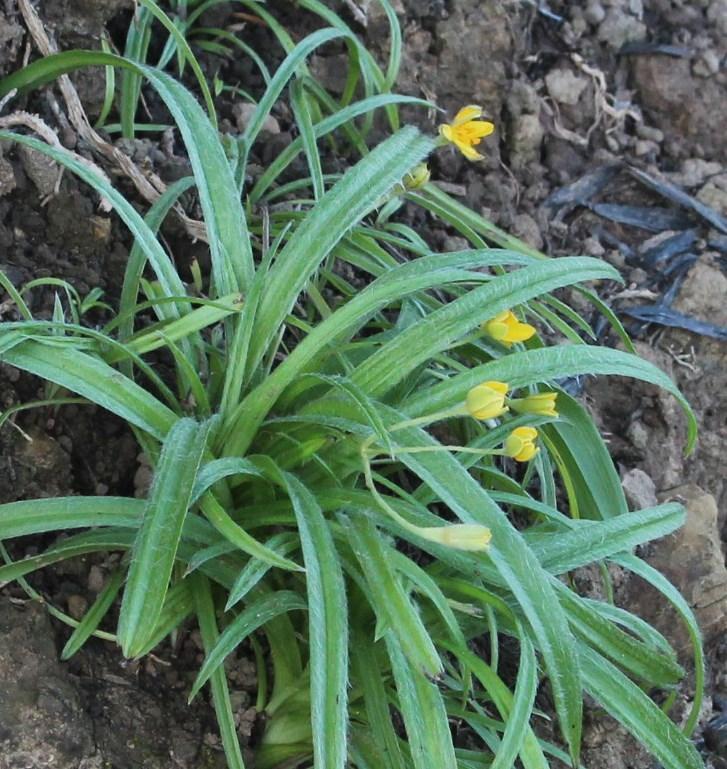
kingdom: Plantae
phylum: Tracheophyta
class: Liliopsida
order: Asparagales
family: Hypoxidaceae
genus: Hypoxis
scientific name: Hypoxis angustifolia
